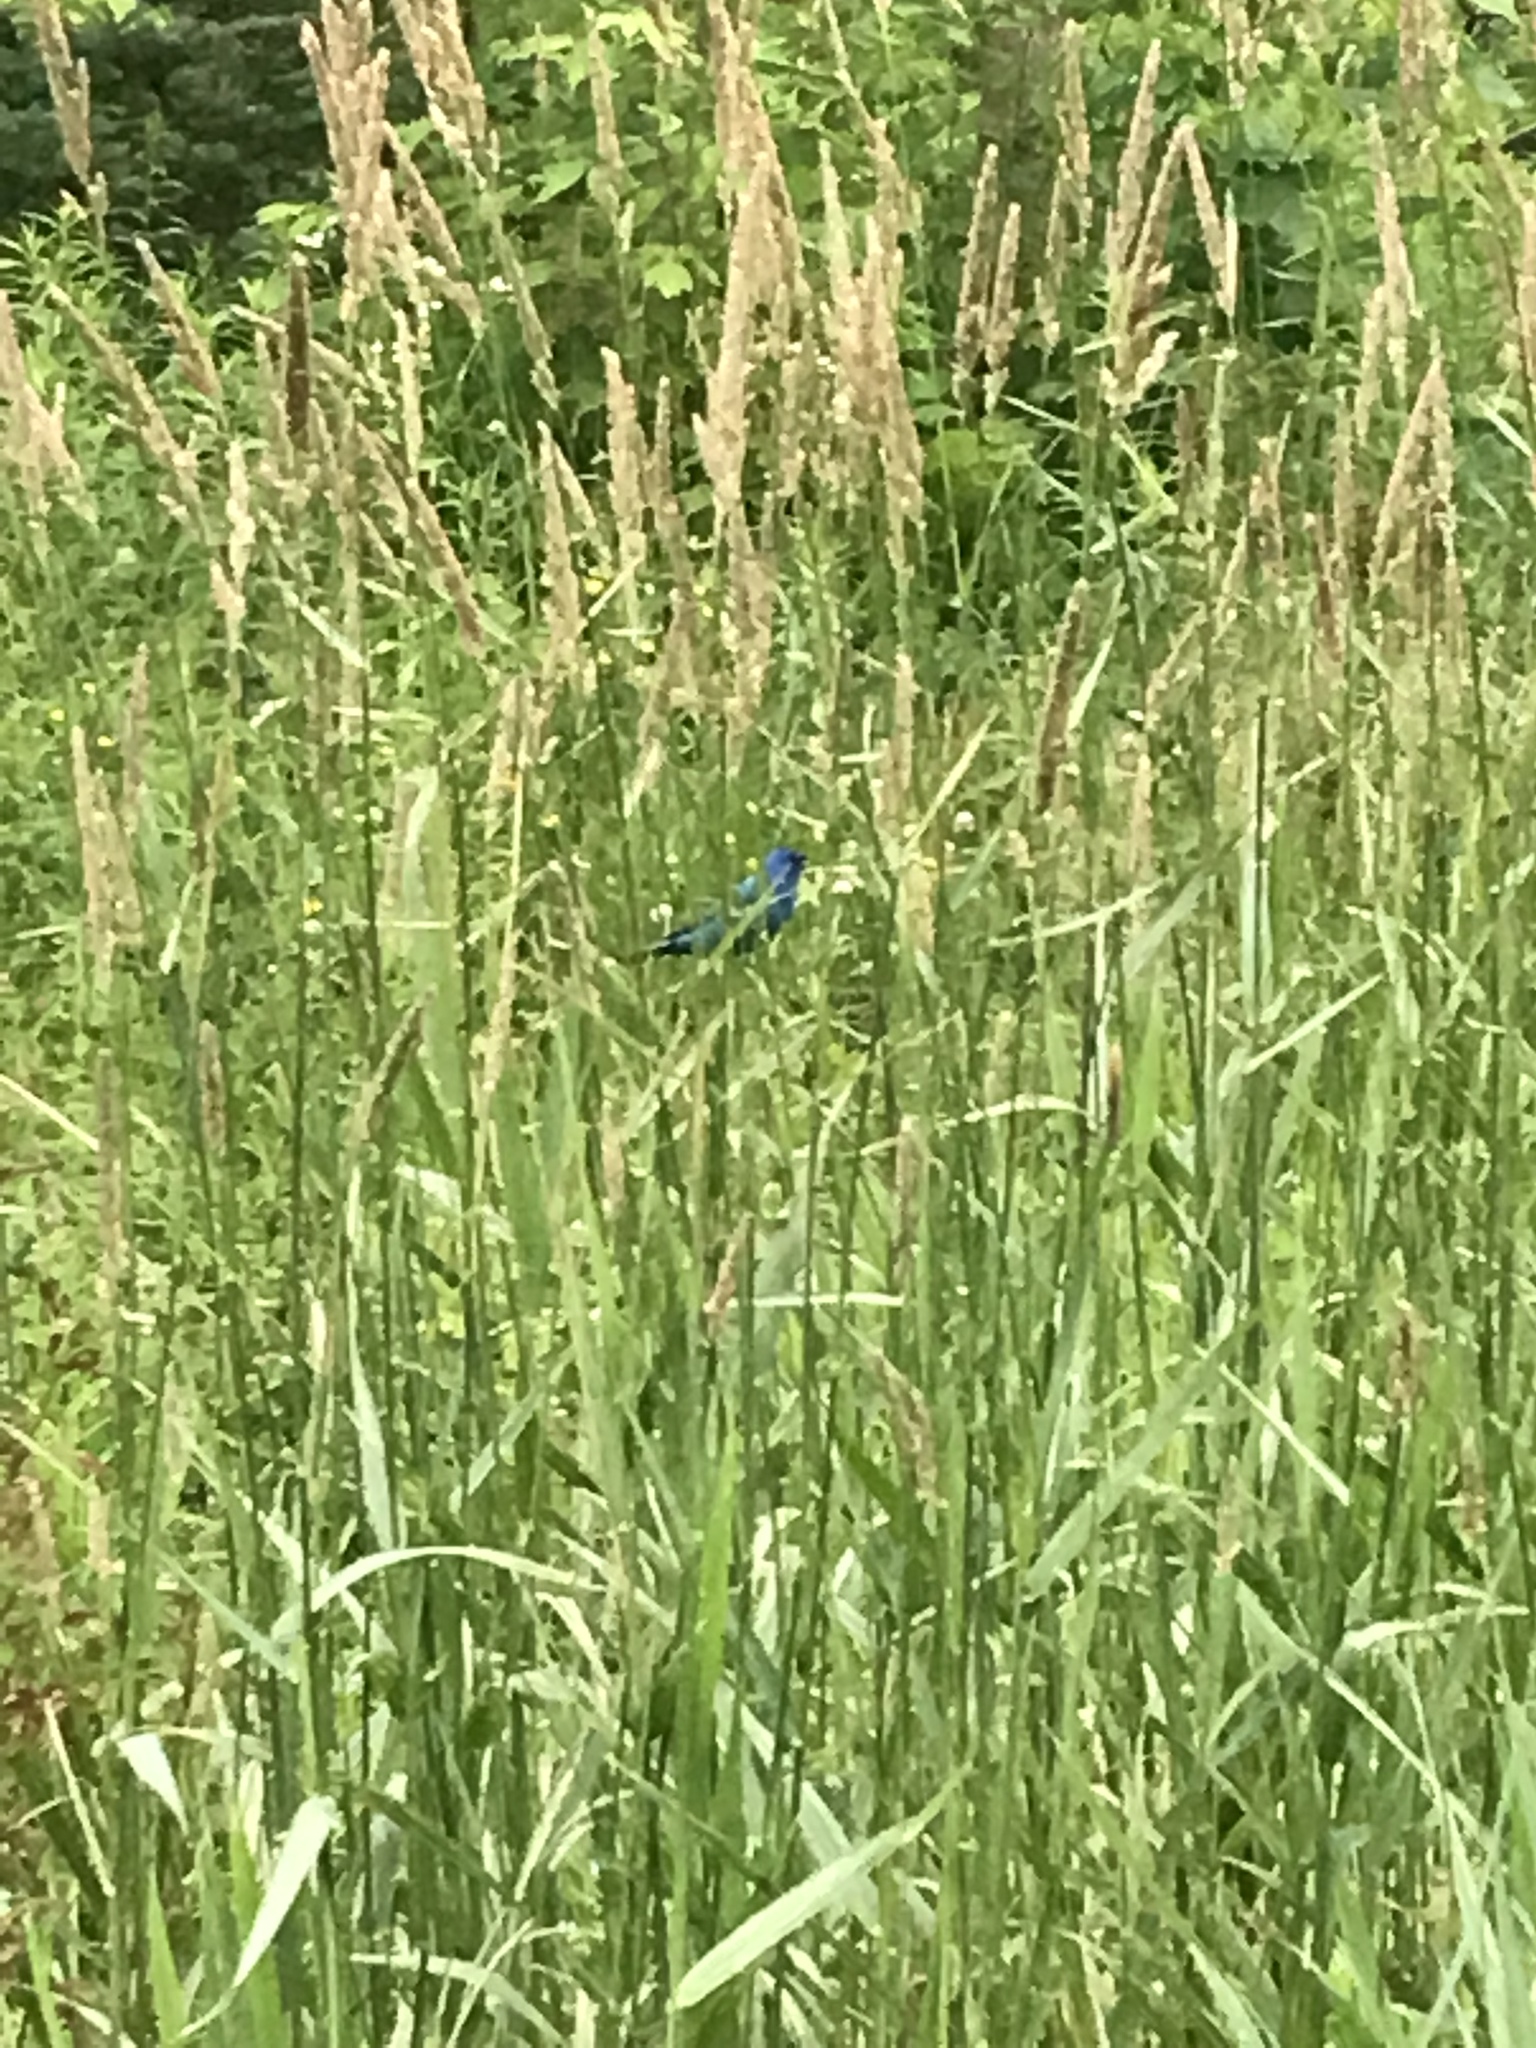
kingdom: Animalia
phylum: Chordata
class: Aves
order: Passeriformes
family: Cardinalidae
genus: Passerina
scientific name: Passerina cyanea
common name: Indigo bunting
